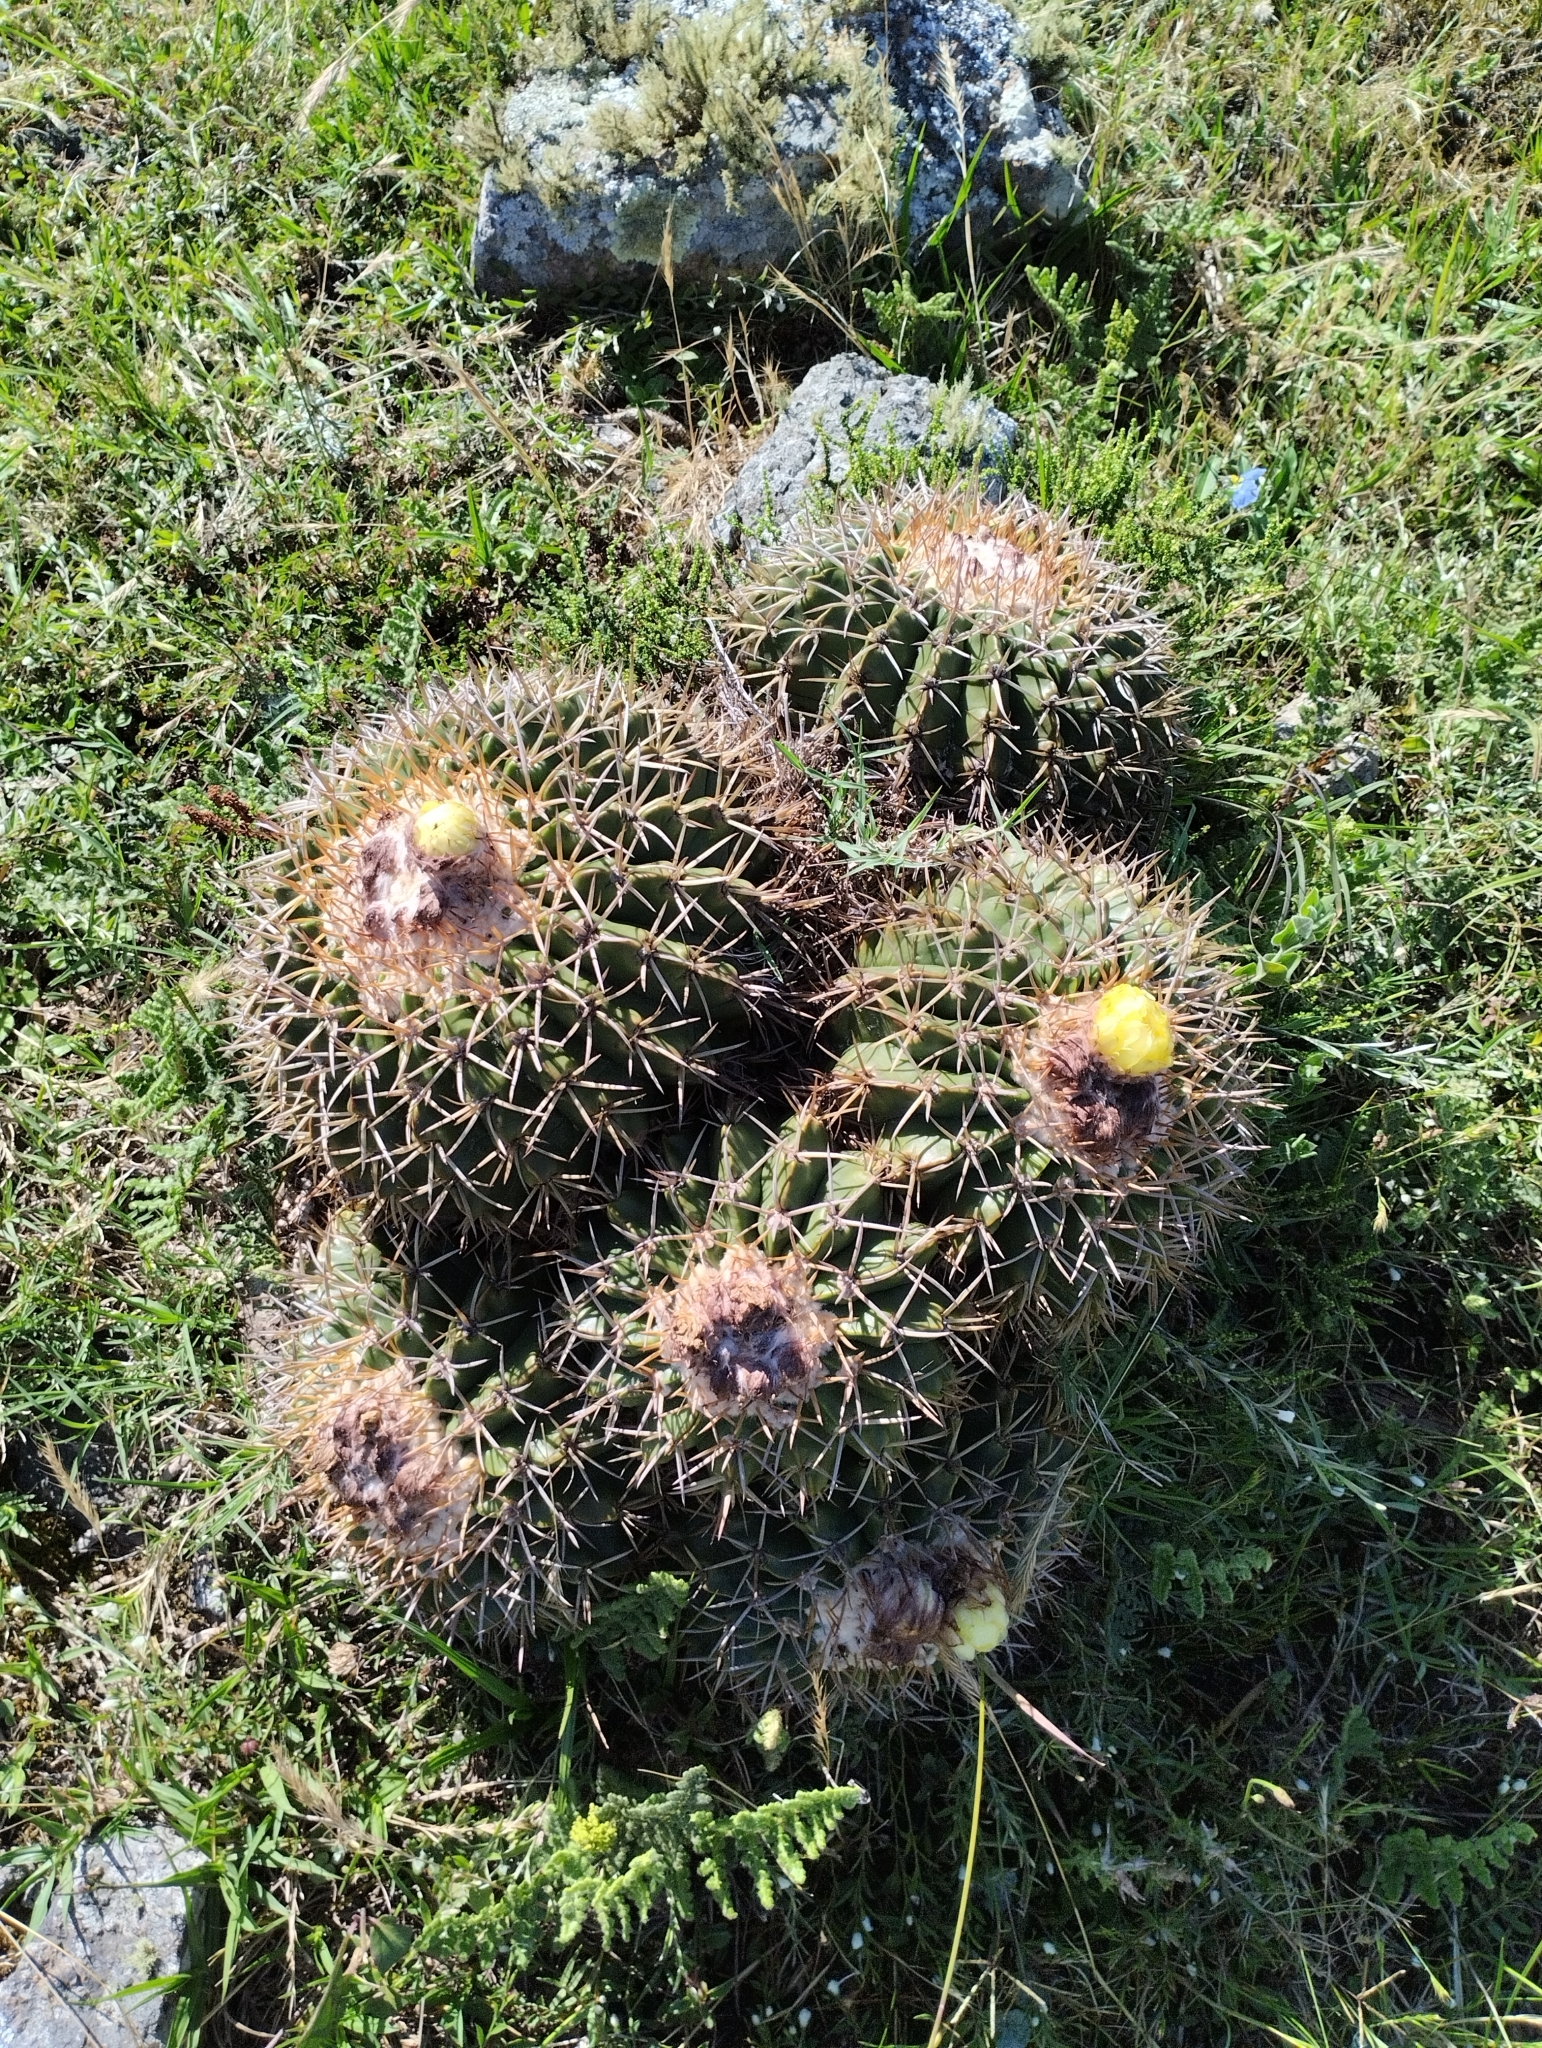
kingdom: Plantae
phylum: Tracheophyta
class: Magnoliopsida
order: Caryophyllales
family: Cactaceae
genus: Parodia
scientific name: Parodia erinacea
